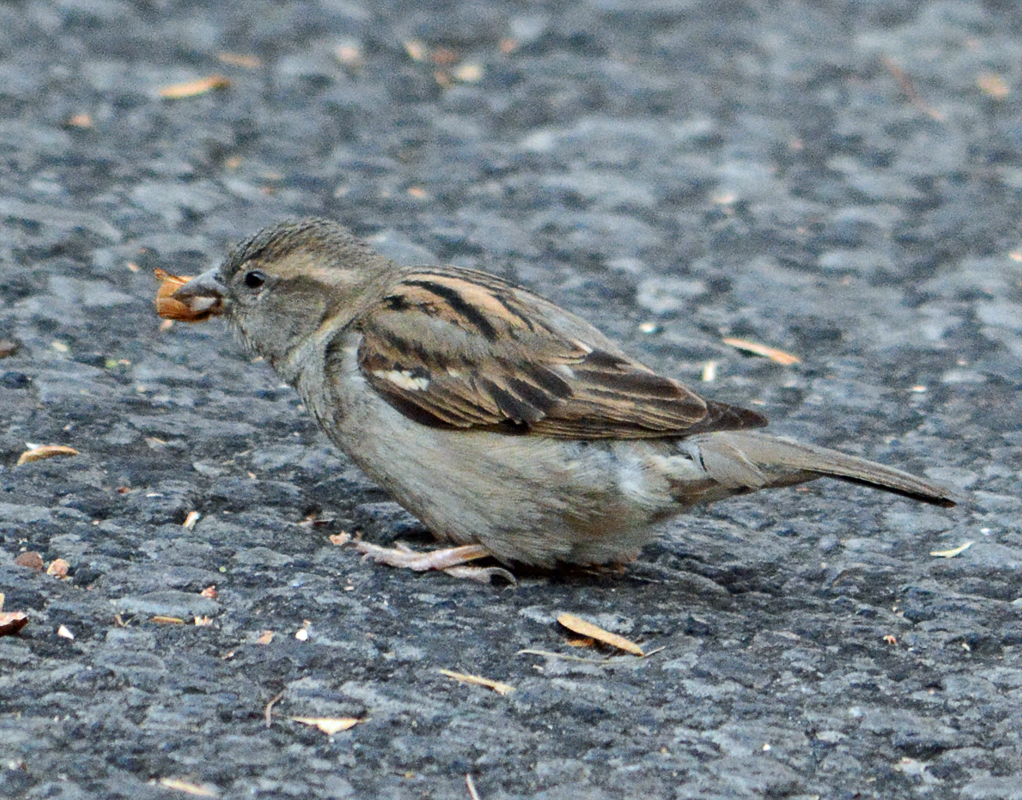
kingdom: Animalia
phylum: Chordata
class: Aves
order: Passeriformes
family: Passeridae
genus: Passer
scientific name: Passer domesticus
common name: House sparrow
